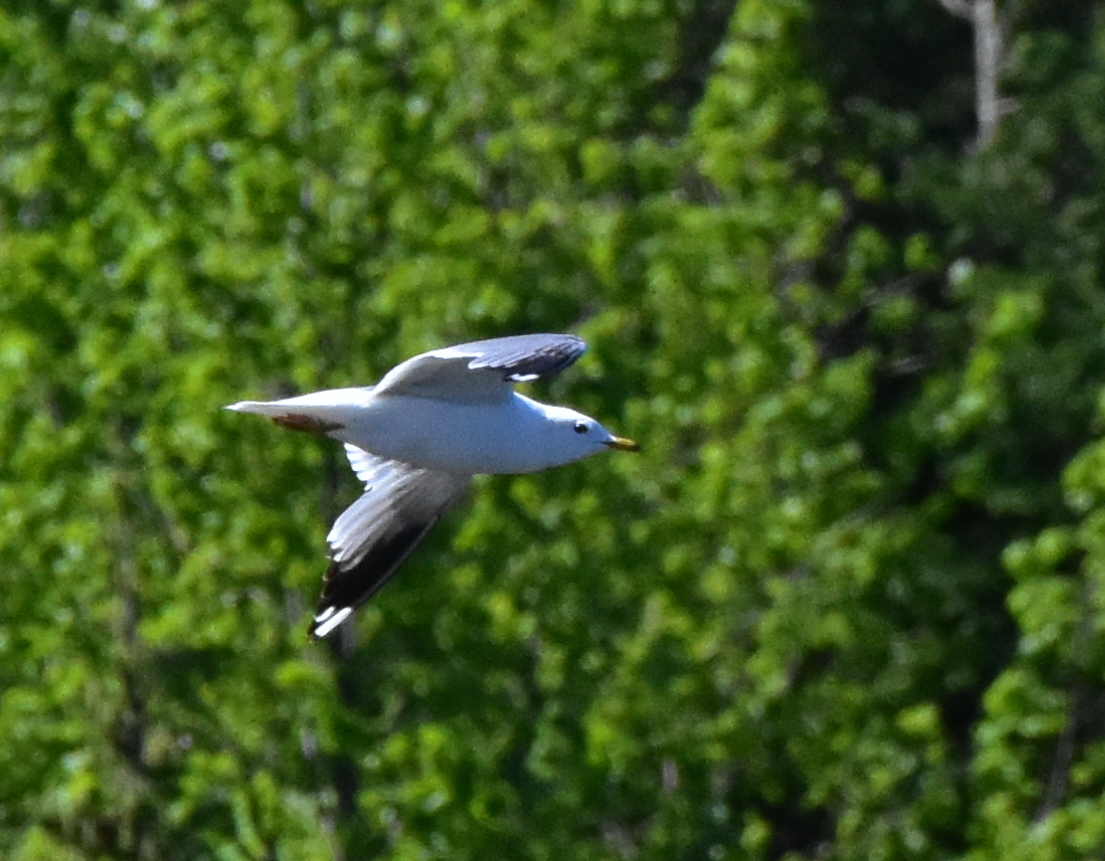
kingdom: Animalia
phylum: Chordata
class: Aves
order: Charadriiformes
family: Laridae
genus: Larus
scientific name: Larus canus
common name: Mew gull
